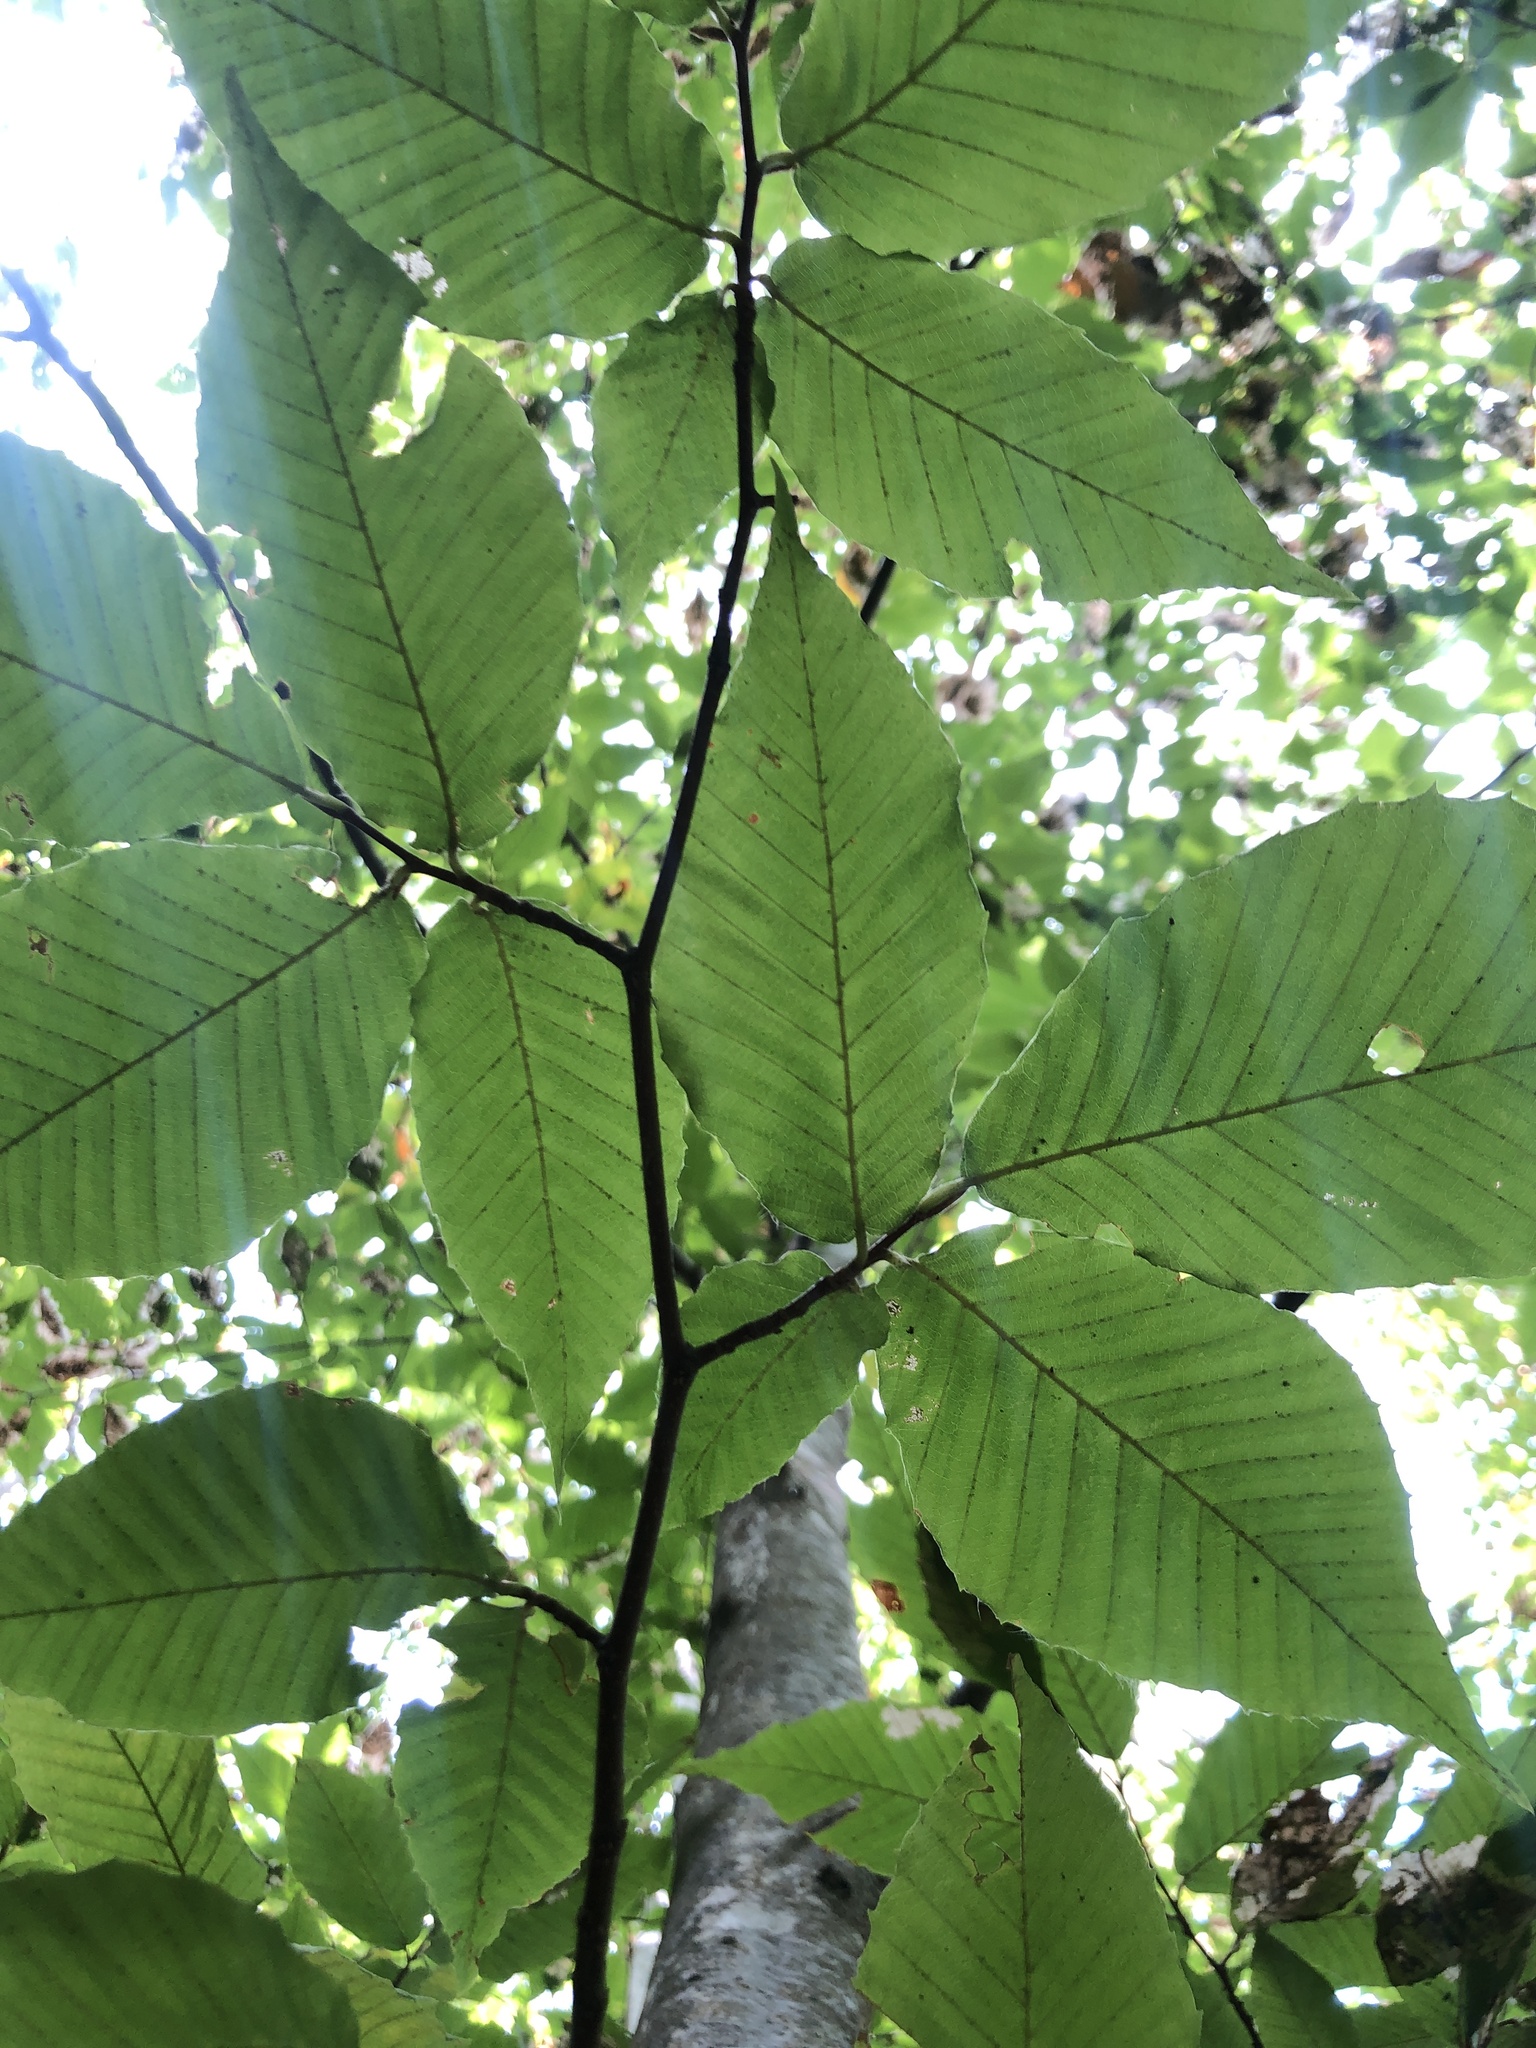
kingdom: Plantae
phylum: Tracheophyta
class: Magnoliopsida
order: Fagales
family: Fagaceae
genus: Fagus
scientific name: Fagus grandifolia
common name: American beech
